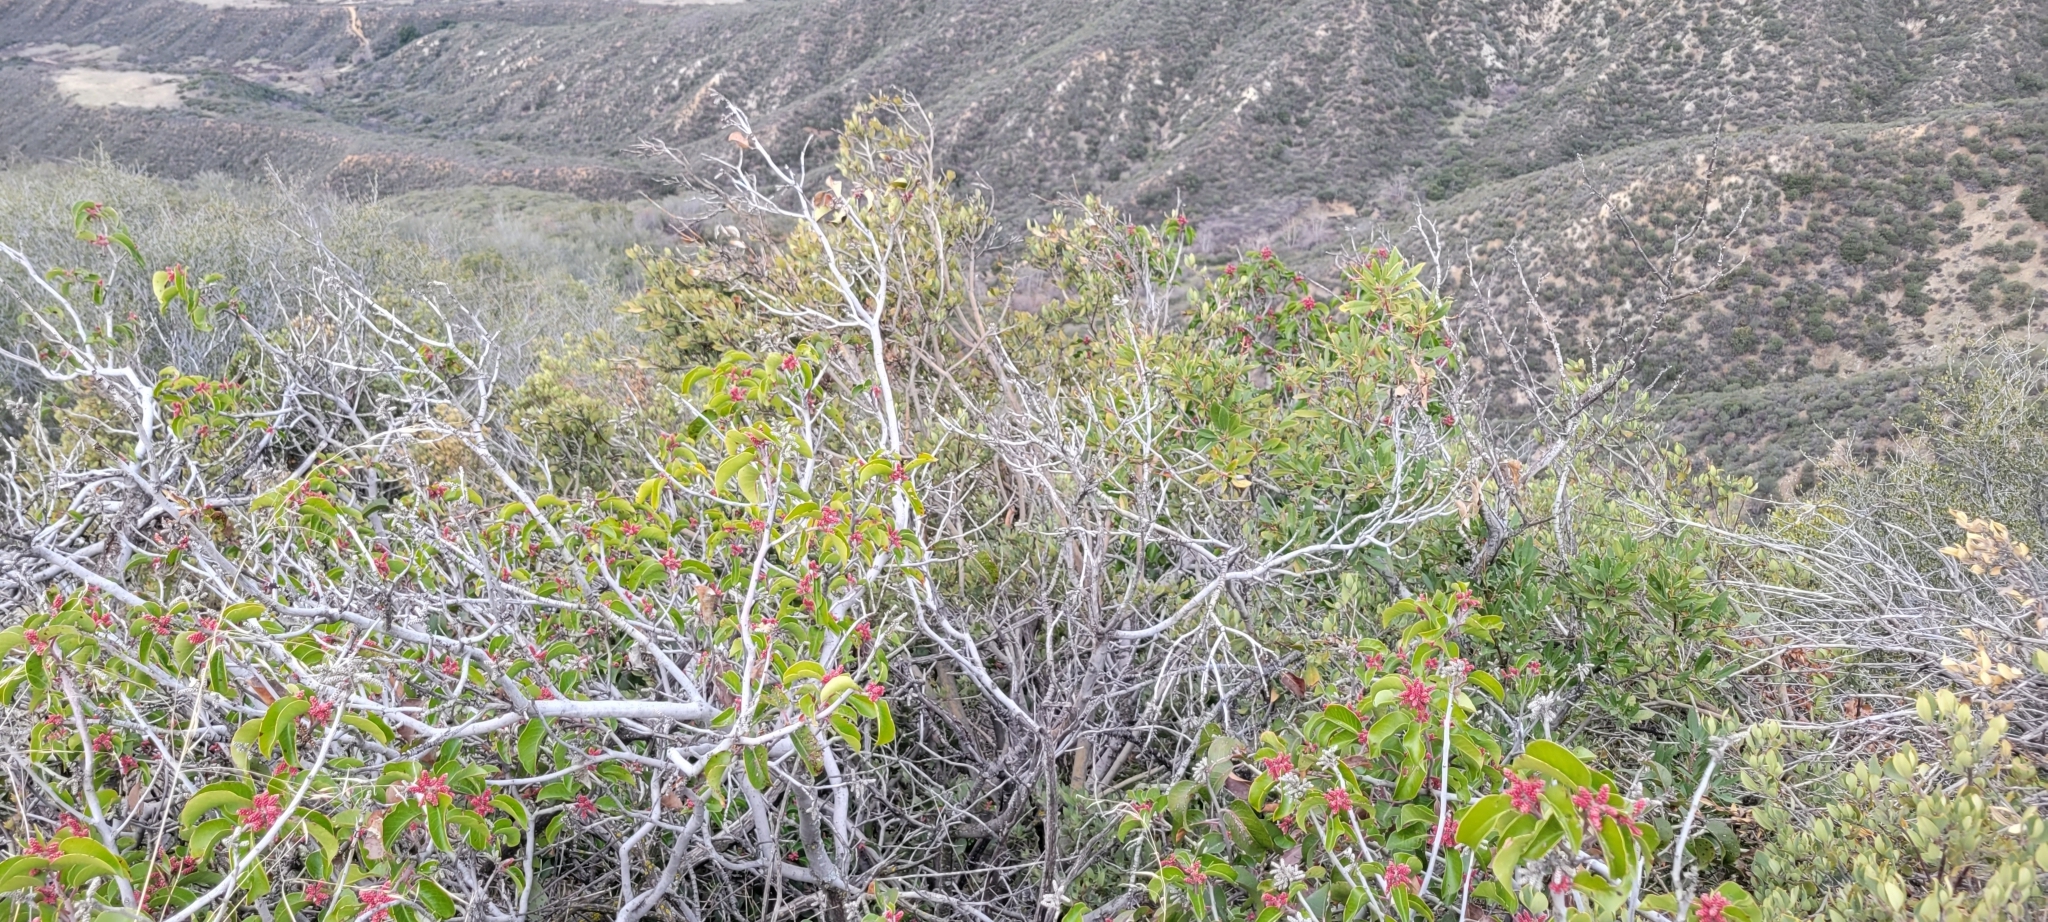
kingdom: Plantae
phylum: Tracheophyta
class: Magnoliopsida
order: Sapindales
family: Anacardiaceae
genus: Rhus
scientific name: Rhus ovata
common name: Sugar sumac
